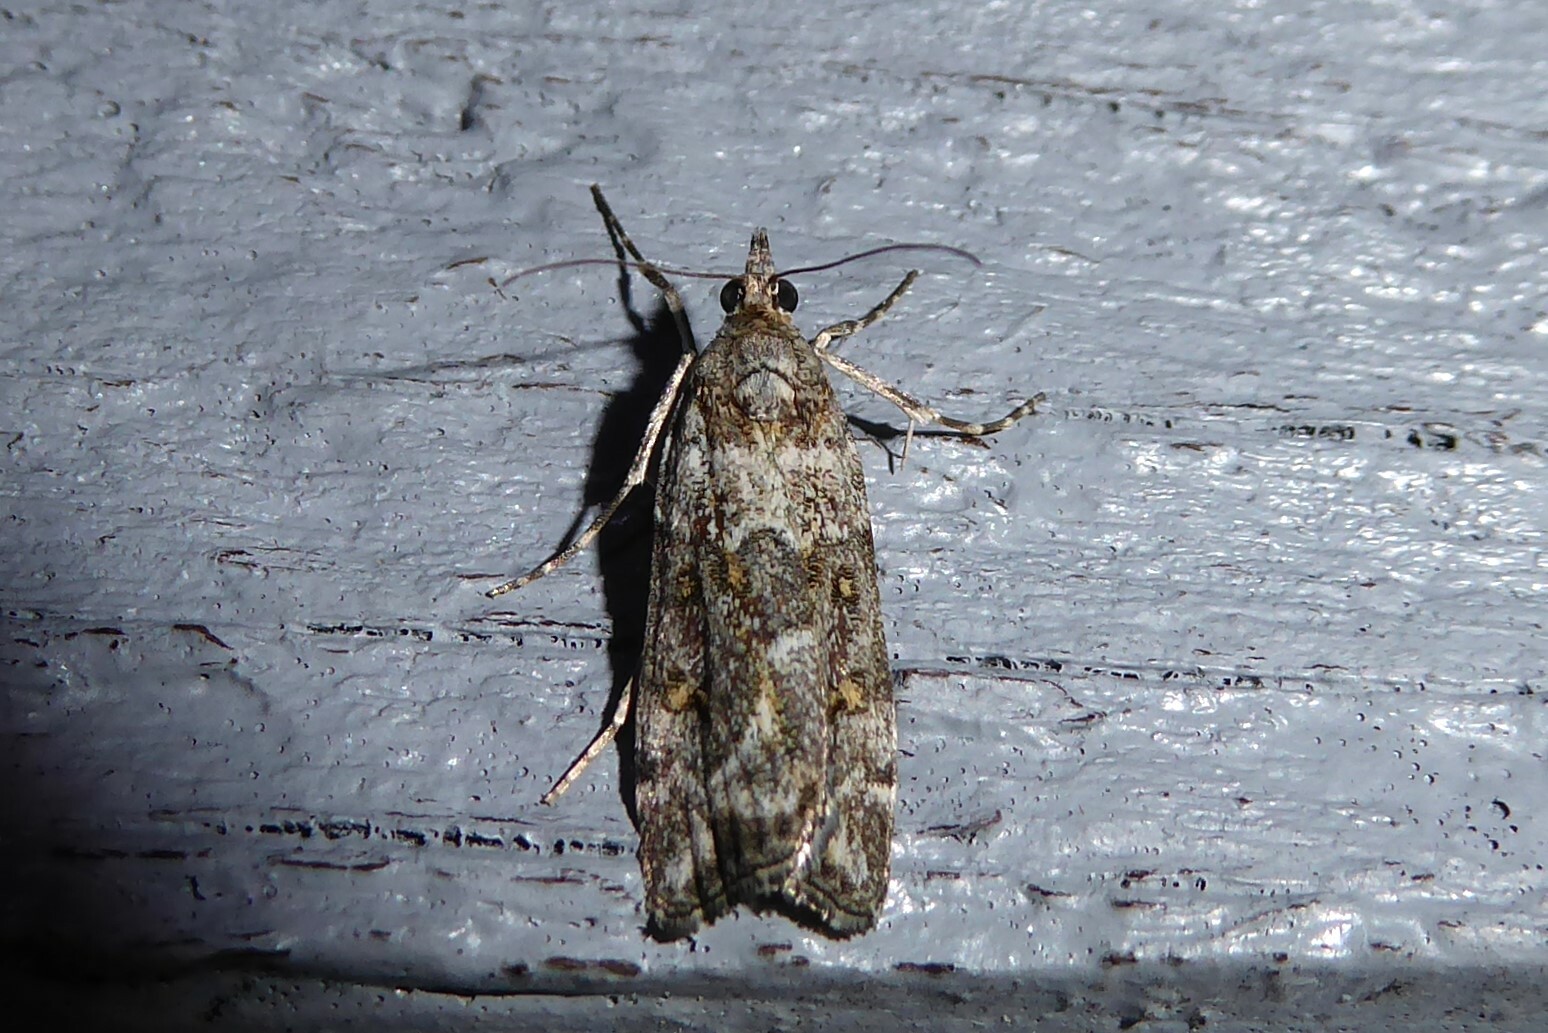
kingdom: Animalia
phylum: Arthropoda
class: Insecta
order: Lepidoptera
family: Crambidae
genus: Scoparia
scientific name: Scoparia tetracycla
